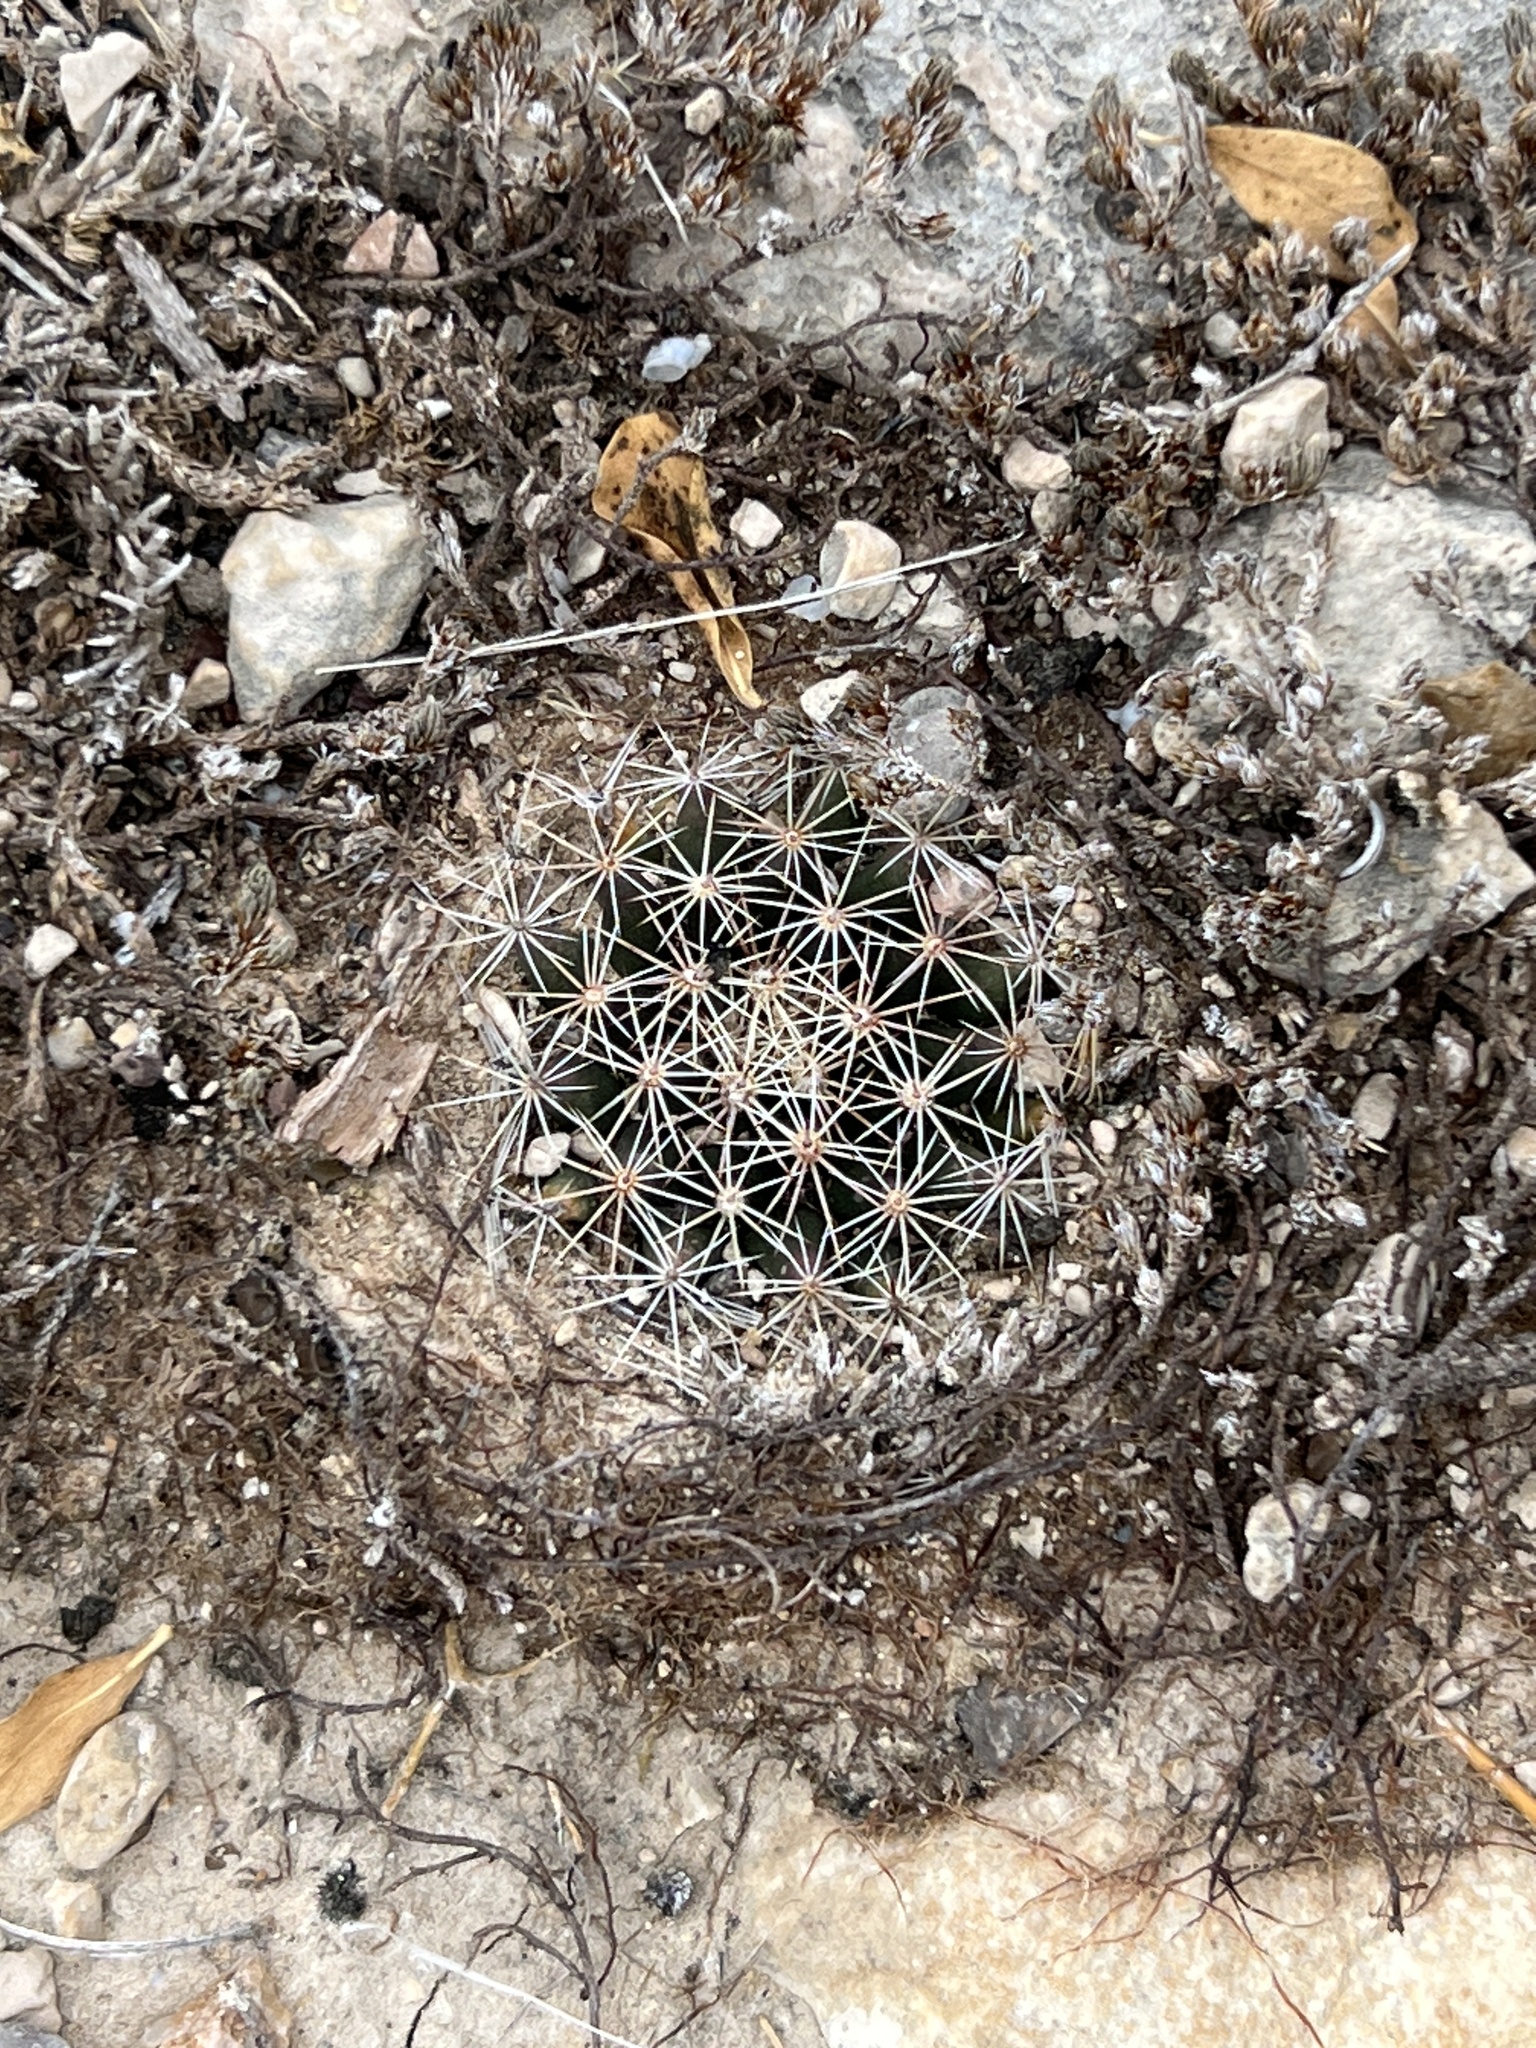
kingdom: Plantae
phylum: Tracheophyta
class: Magnoliopsida
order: Caryophyllales
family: Cactaceae
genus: Mammillaria
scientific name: Mammillaria heyderi
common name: Little nipple cactus
